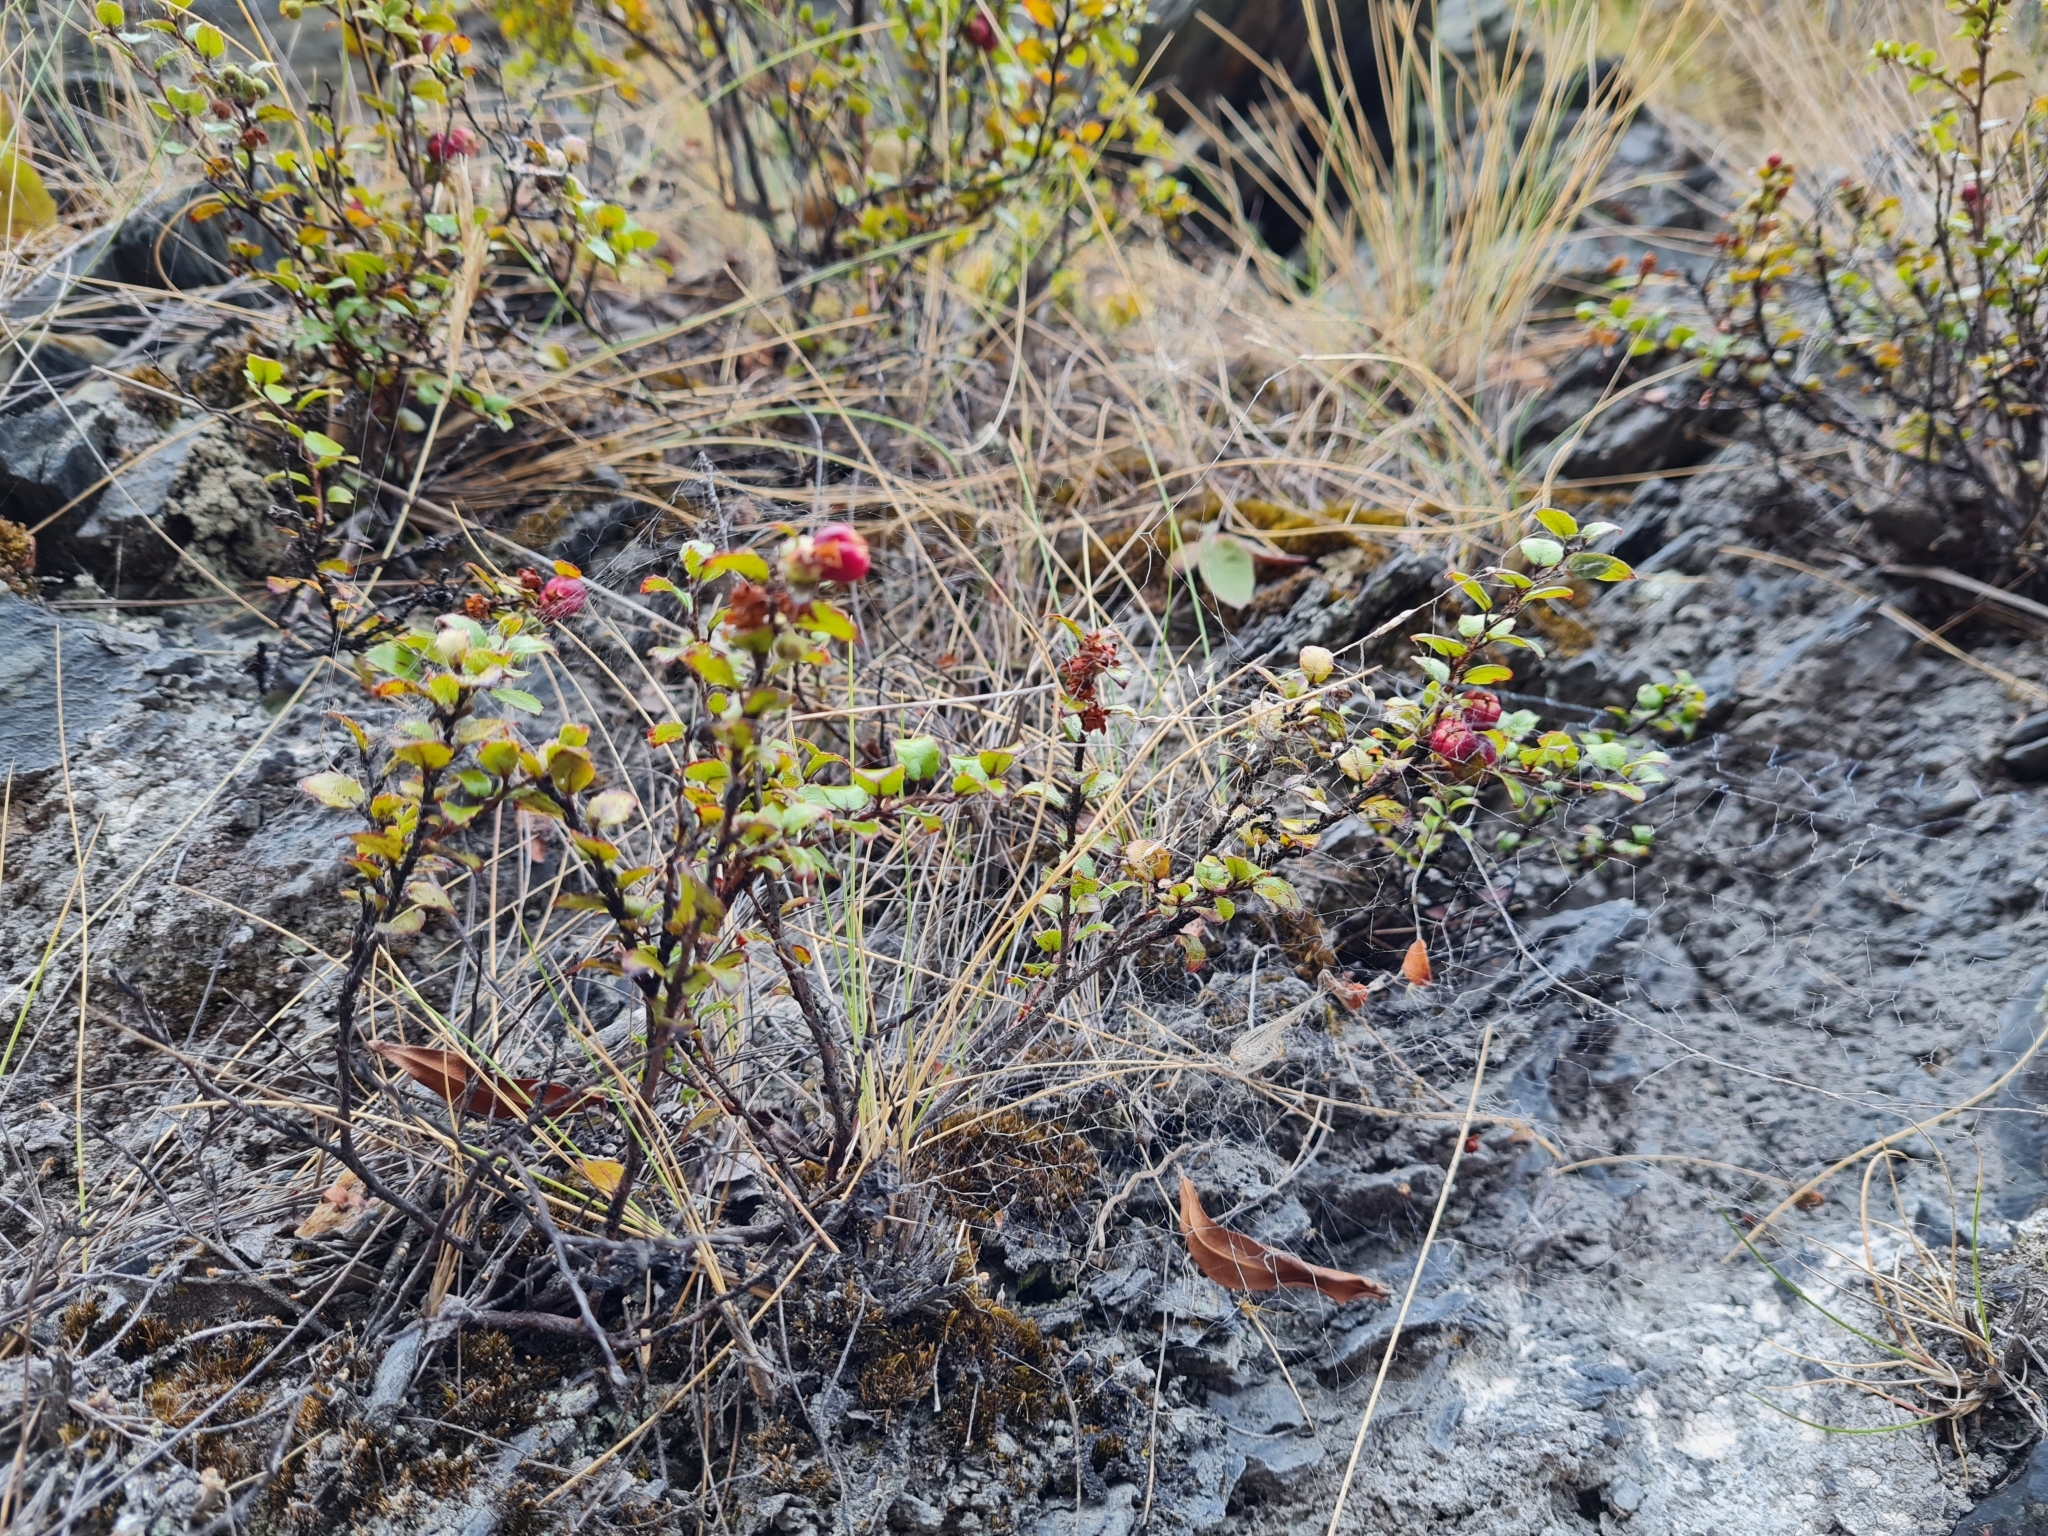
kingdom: Plantae
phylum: Tracheophyta
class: Magnoliopsida
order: Ericales
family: Ericaceae
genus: Gaultheria
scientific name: Gaultheria antipoda
